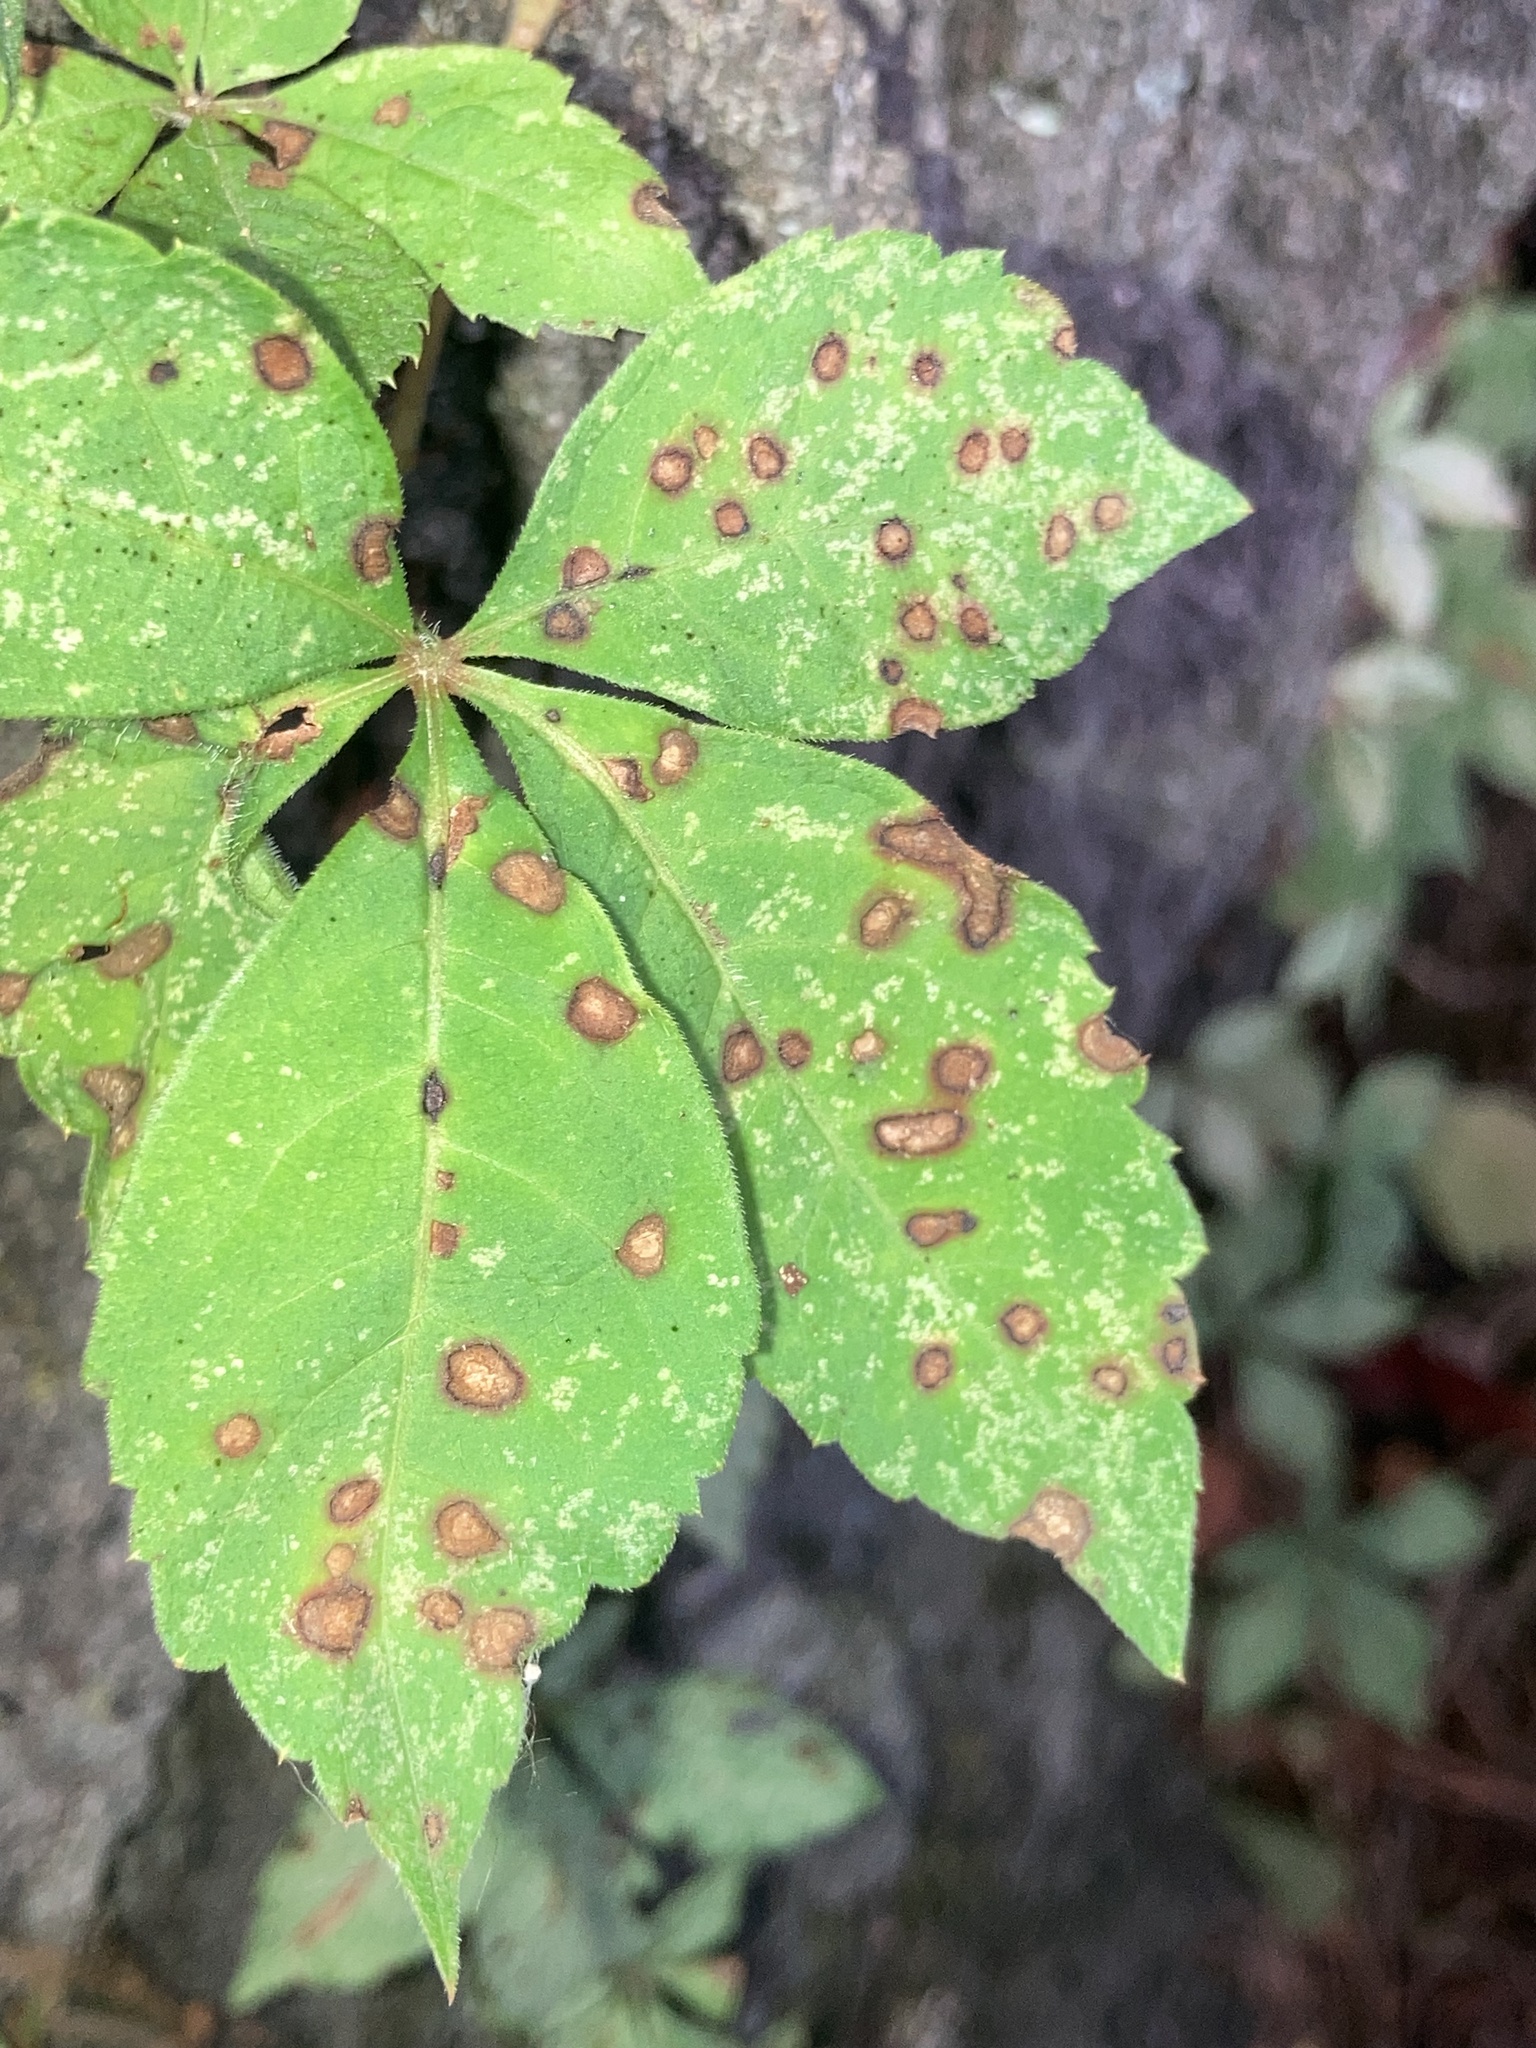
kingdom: Fungi
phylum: Ascomycota
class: Dothideomycetes
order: Botryosphaeriales
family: Phyllostictaceae
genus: Phyllosticta
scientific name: Phyllosticta parthenocissi
